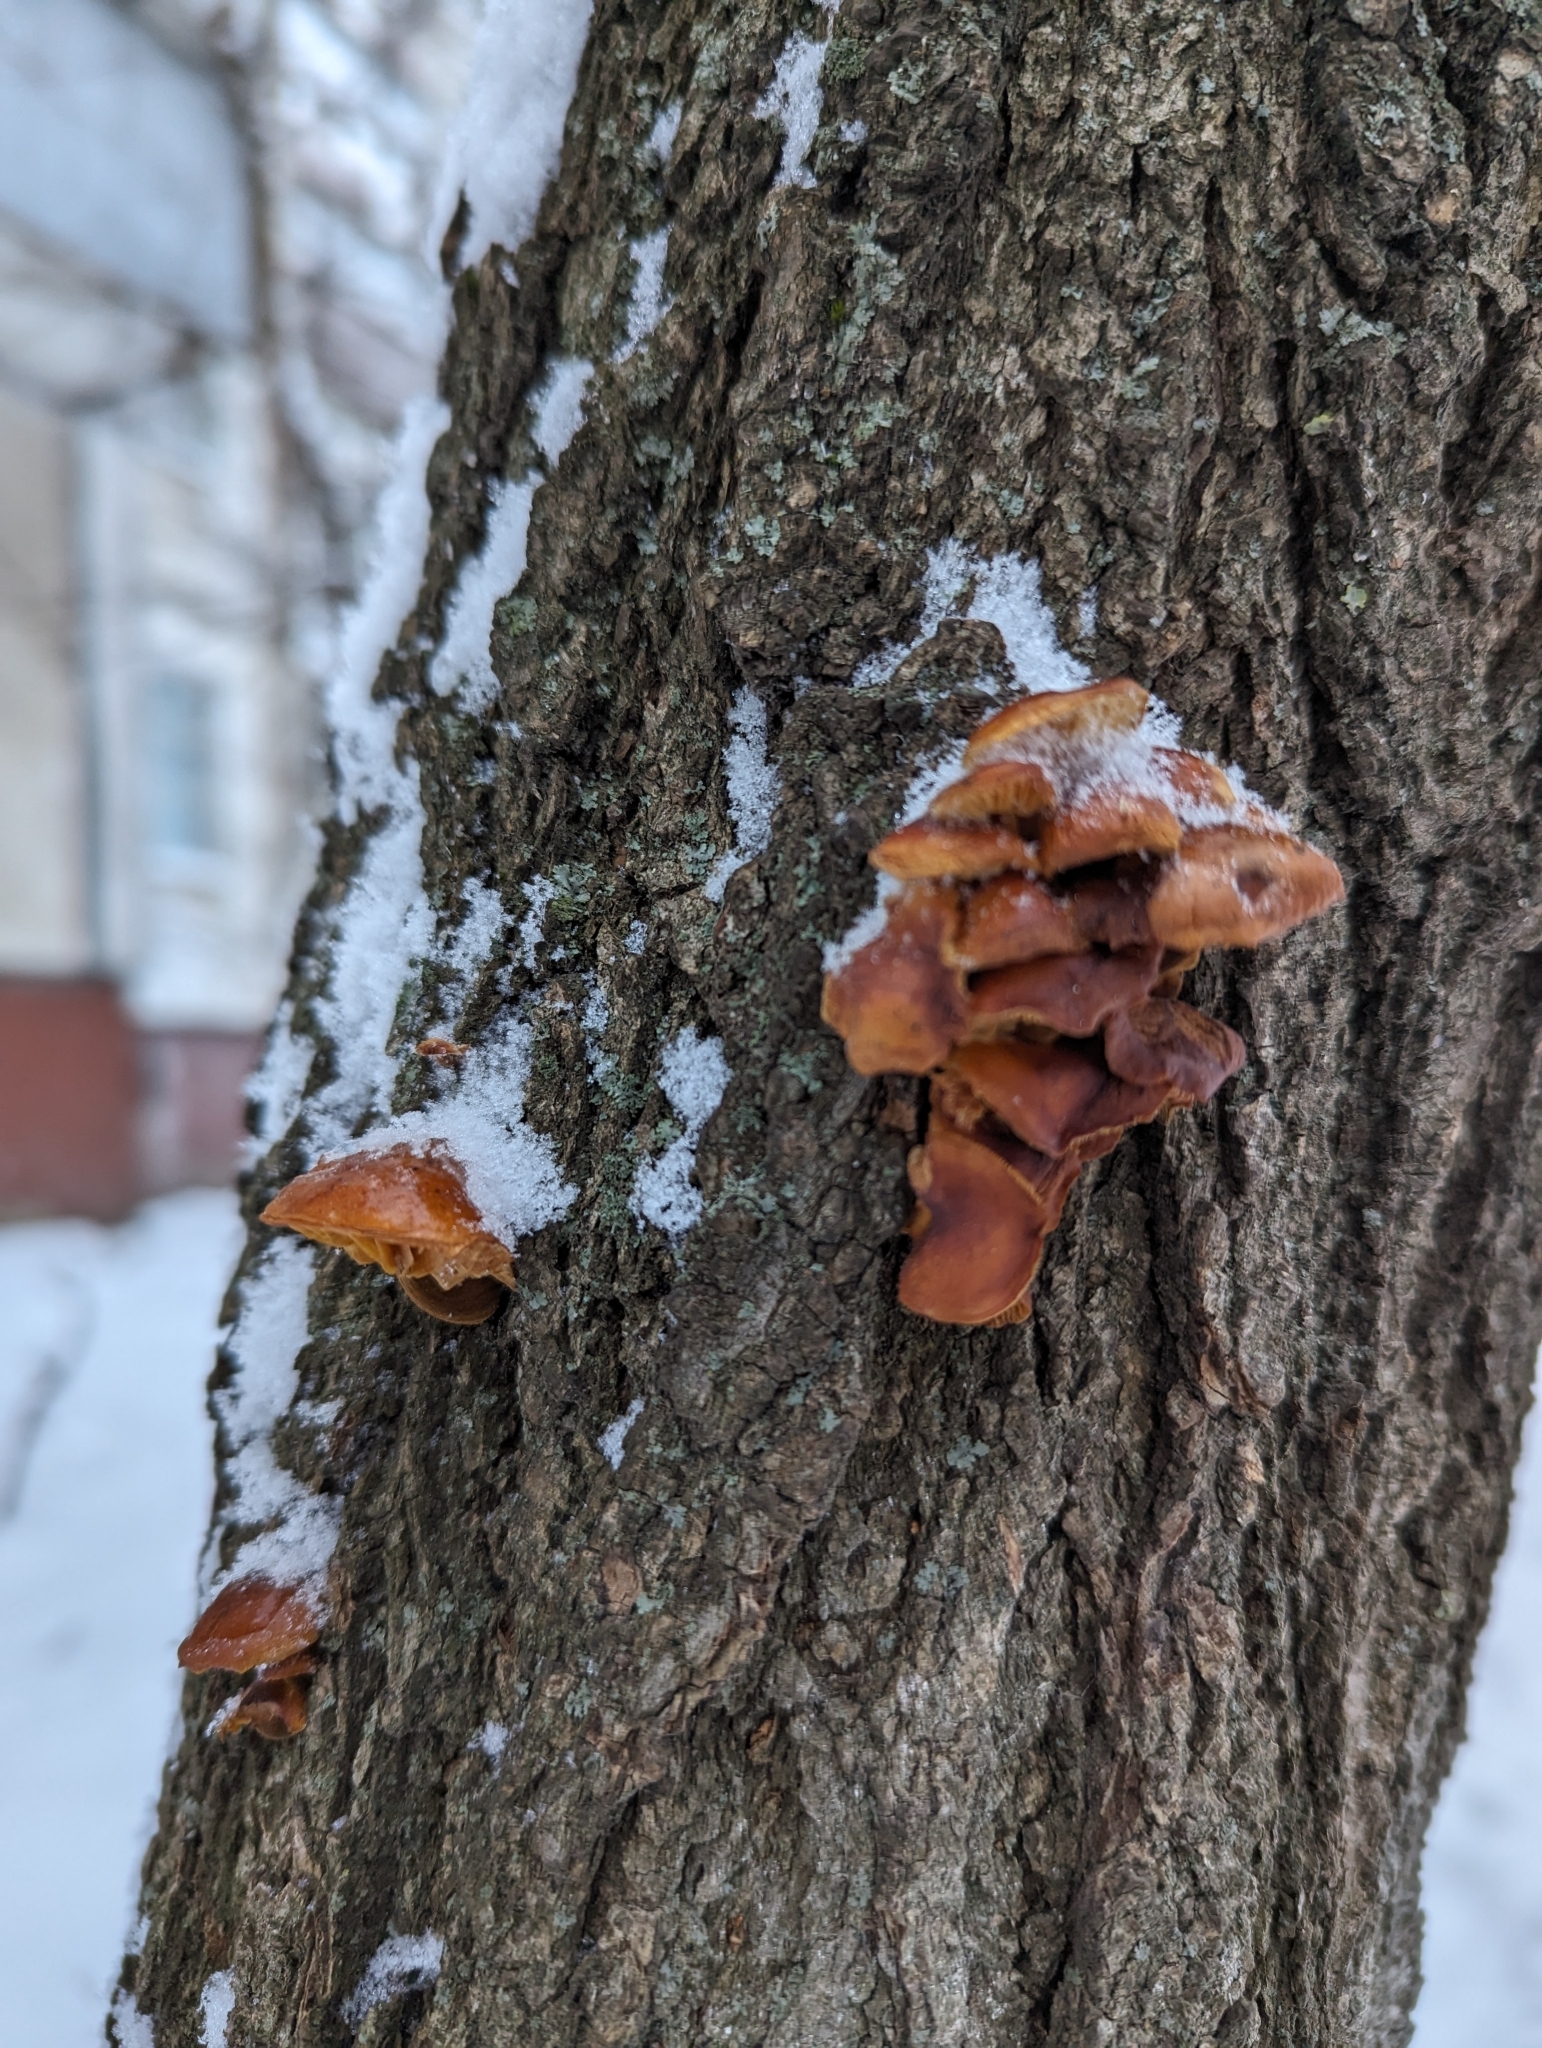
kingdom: Fungi
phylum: Basidiomycota
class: Agaricomycetes
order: Agaricales
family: Physalacriaceae
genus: Flammulina
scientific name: Flammulina
